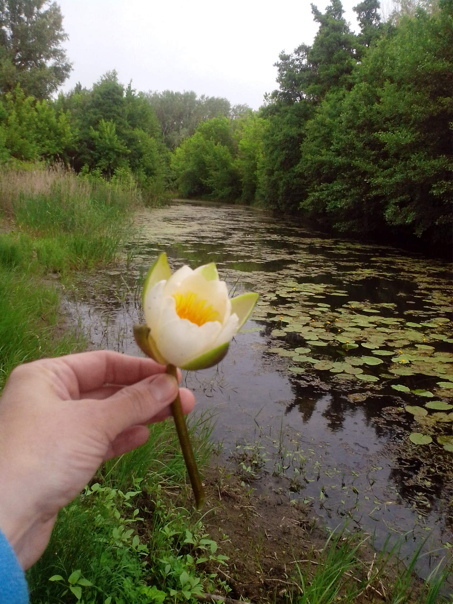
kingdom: Plantae
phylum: Tracheophyta
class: Magnoliopsida
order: Nymphaeales
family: Nymphaeaceae
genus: Nymphaea
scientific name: Nymphaea candida
